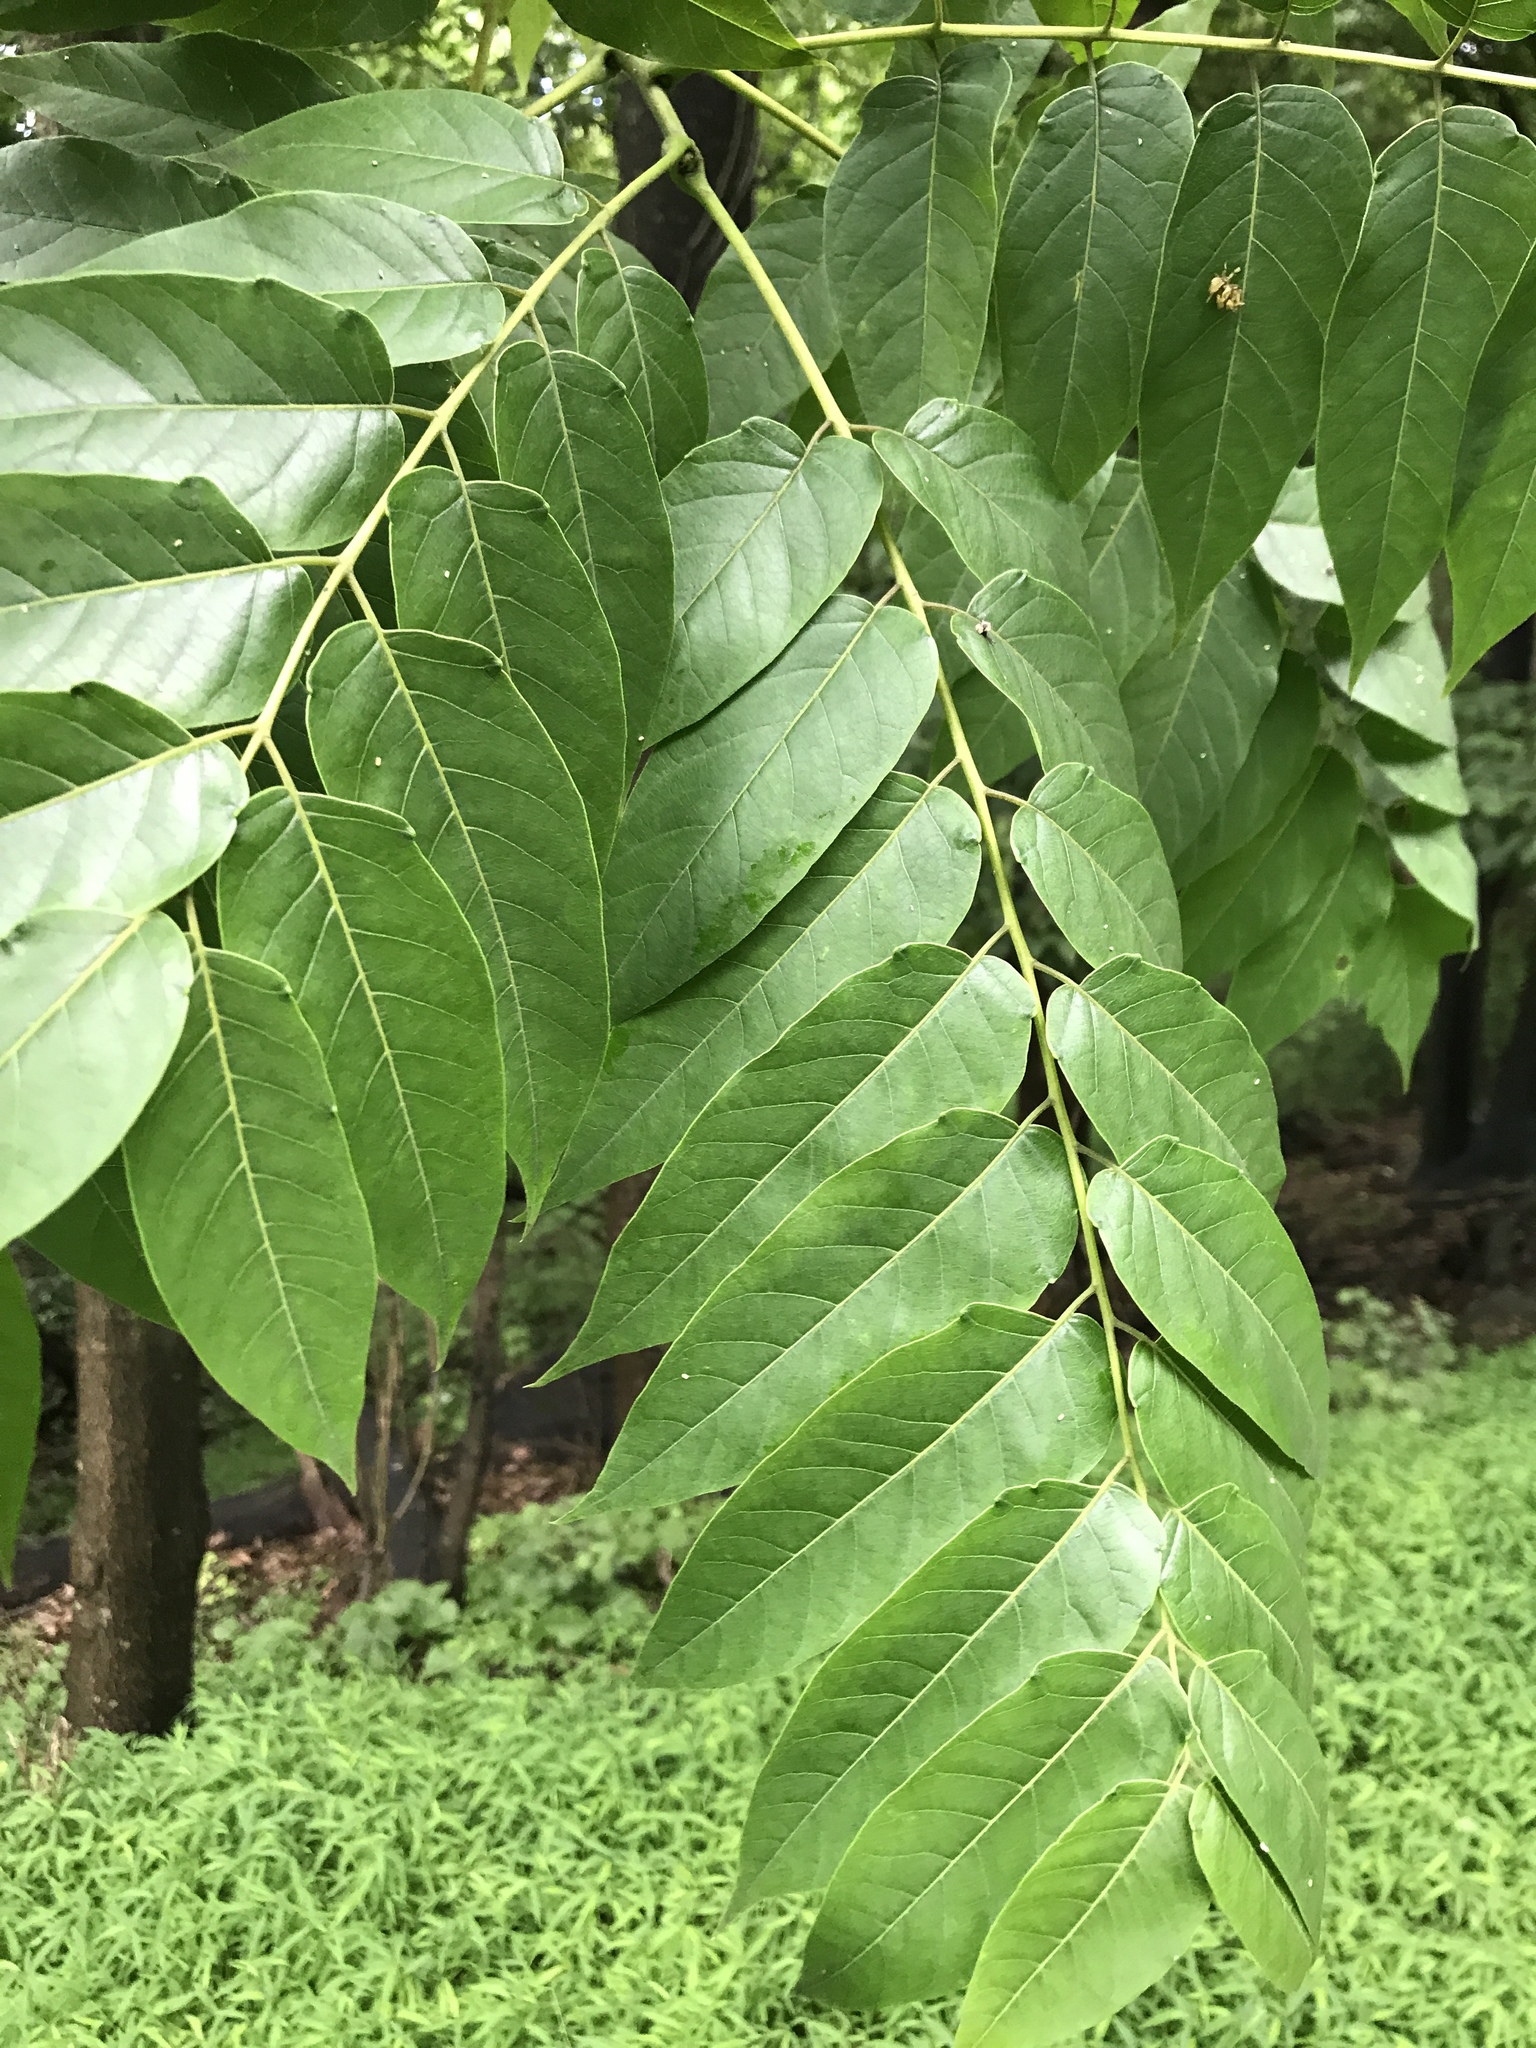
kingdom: Plantae
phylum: Tracheophyta
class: Magnoliopsida
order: Sapindales
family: Simaroubaceae
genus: Ailanthus
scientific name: Ailanthus altissima
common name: Tree-of-heaven
